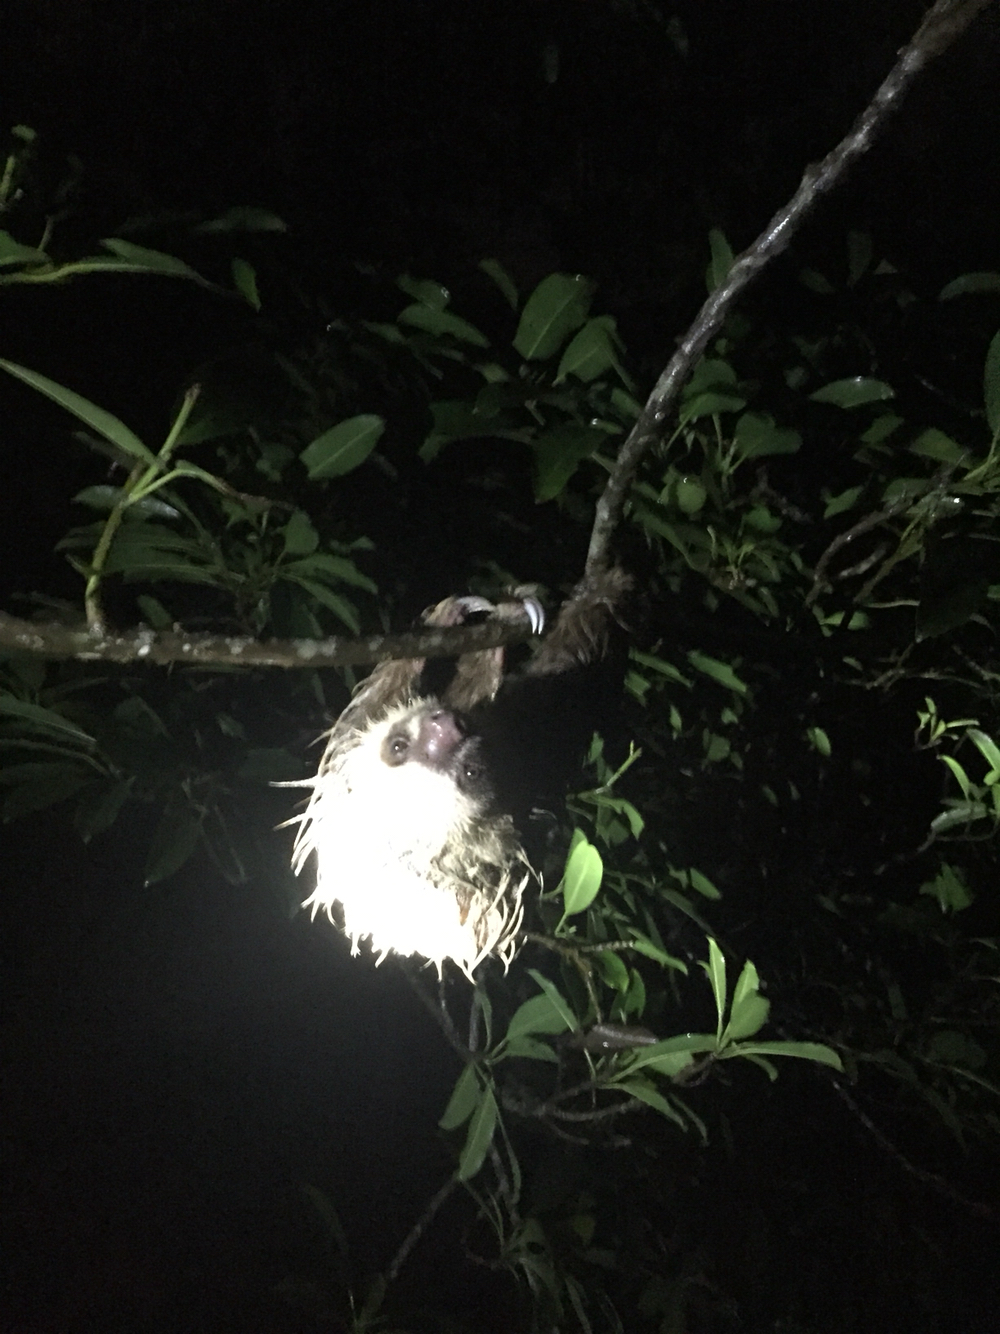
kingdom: Animalia
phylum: Chordata
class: Mammalia
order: Pilosa
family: Megalonychidae
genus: Choloepus
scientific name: Choloepus hoffmanni
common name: Hoffmann's two-toed sloth
